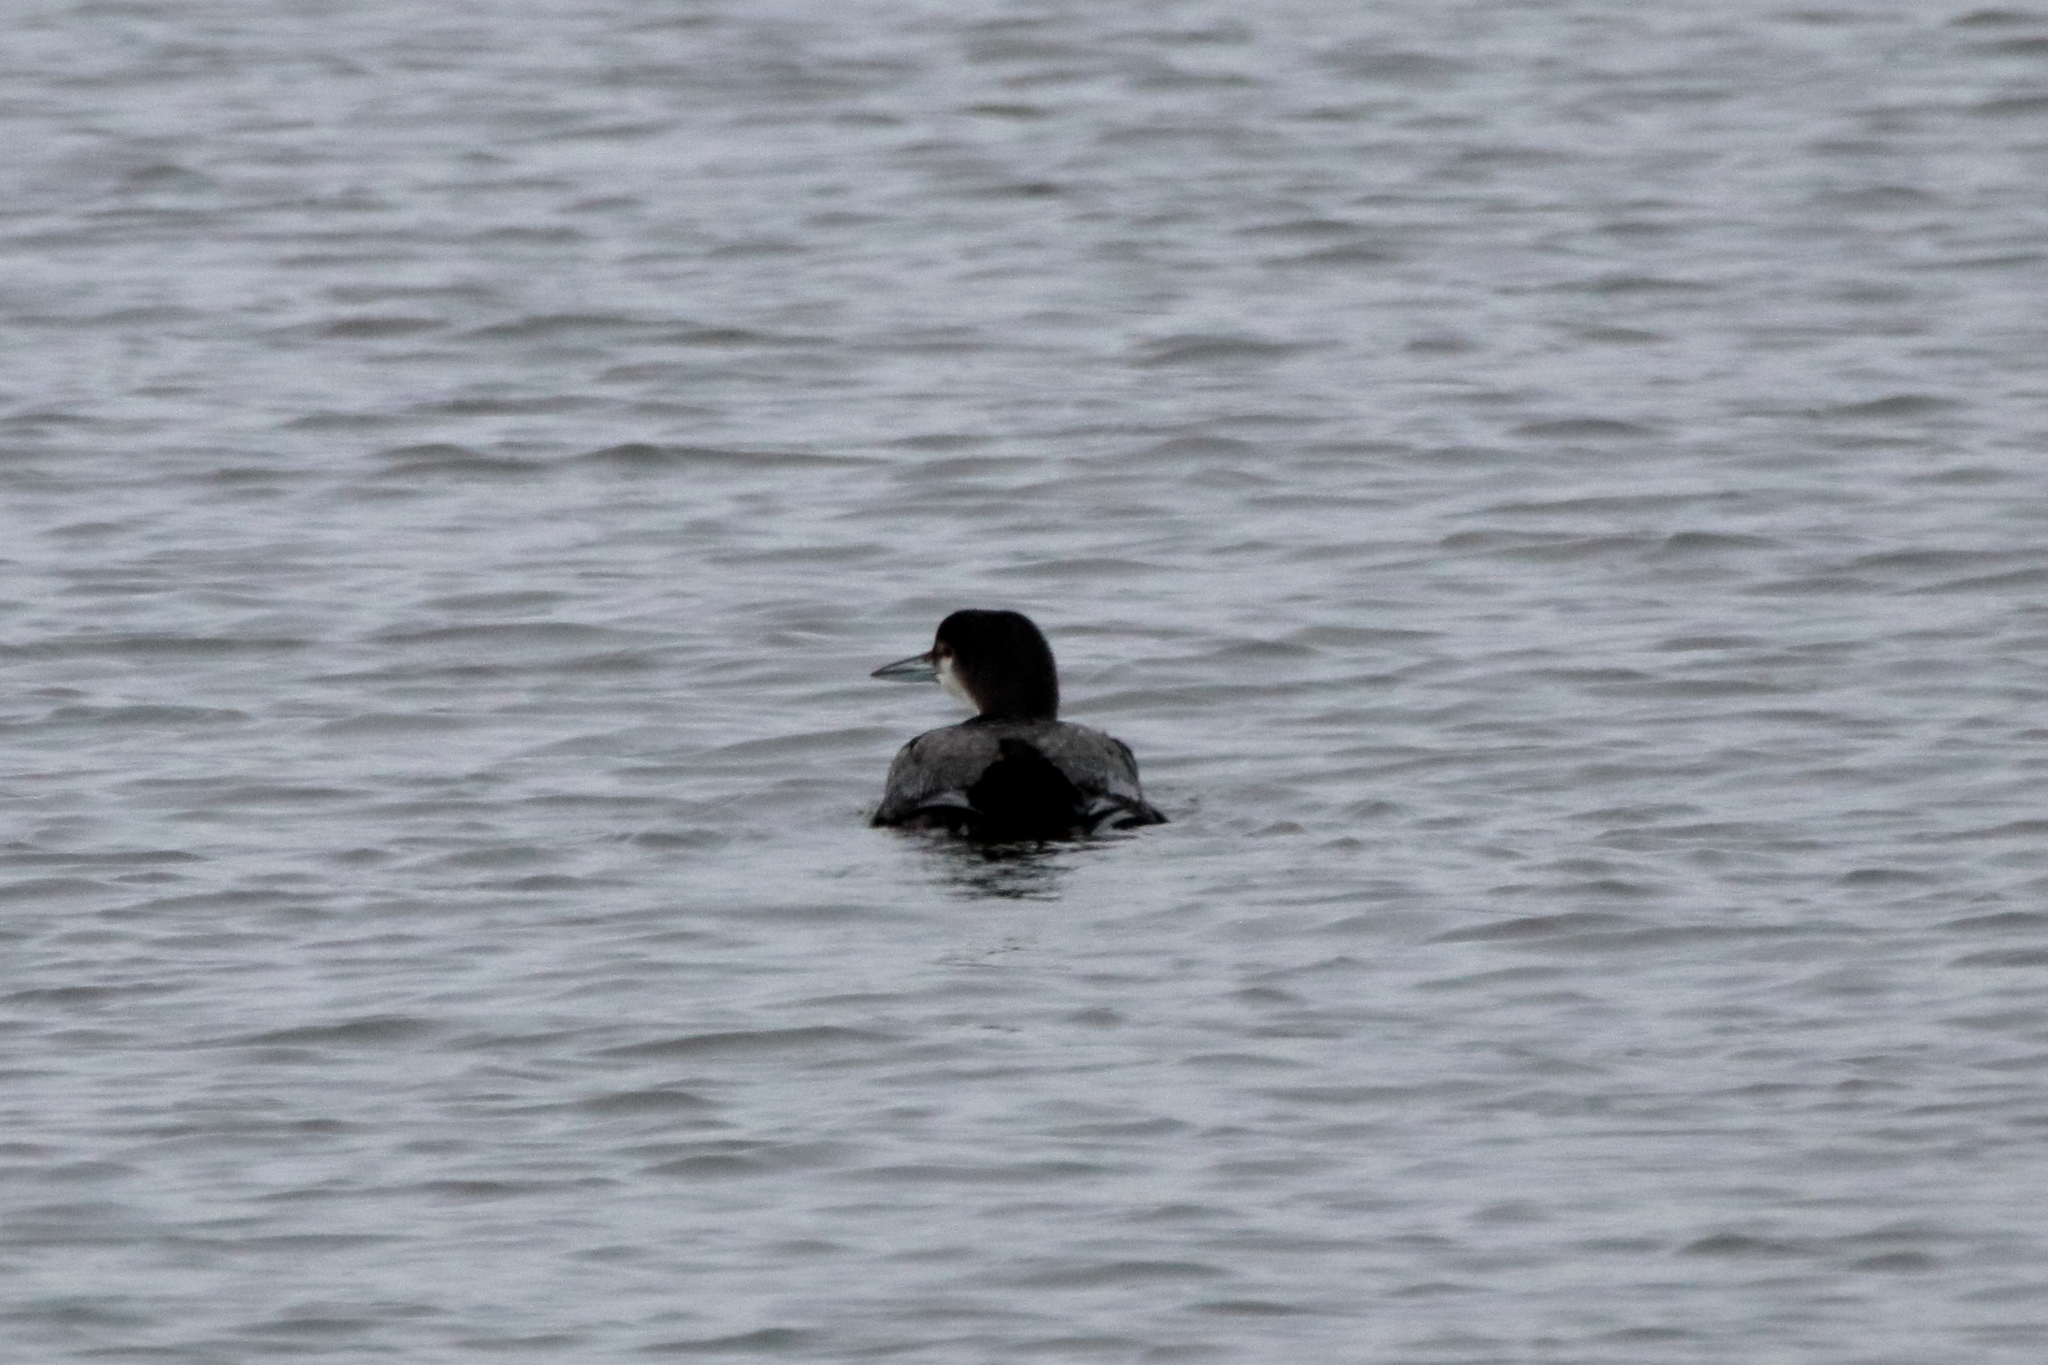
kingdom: Animalia
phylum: Chordata
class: Aves
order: Gaviiformes
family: Gaviidae
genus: Gavia
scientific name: Gavia immer
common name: Common loon
